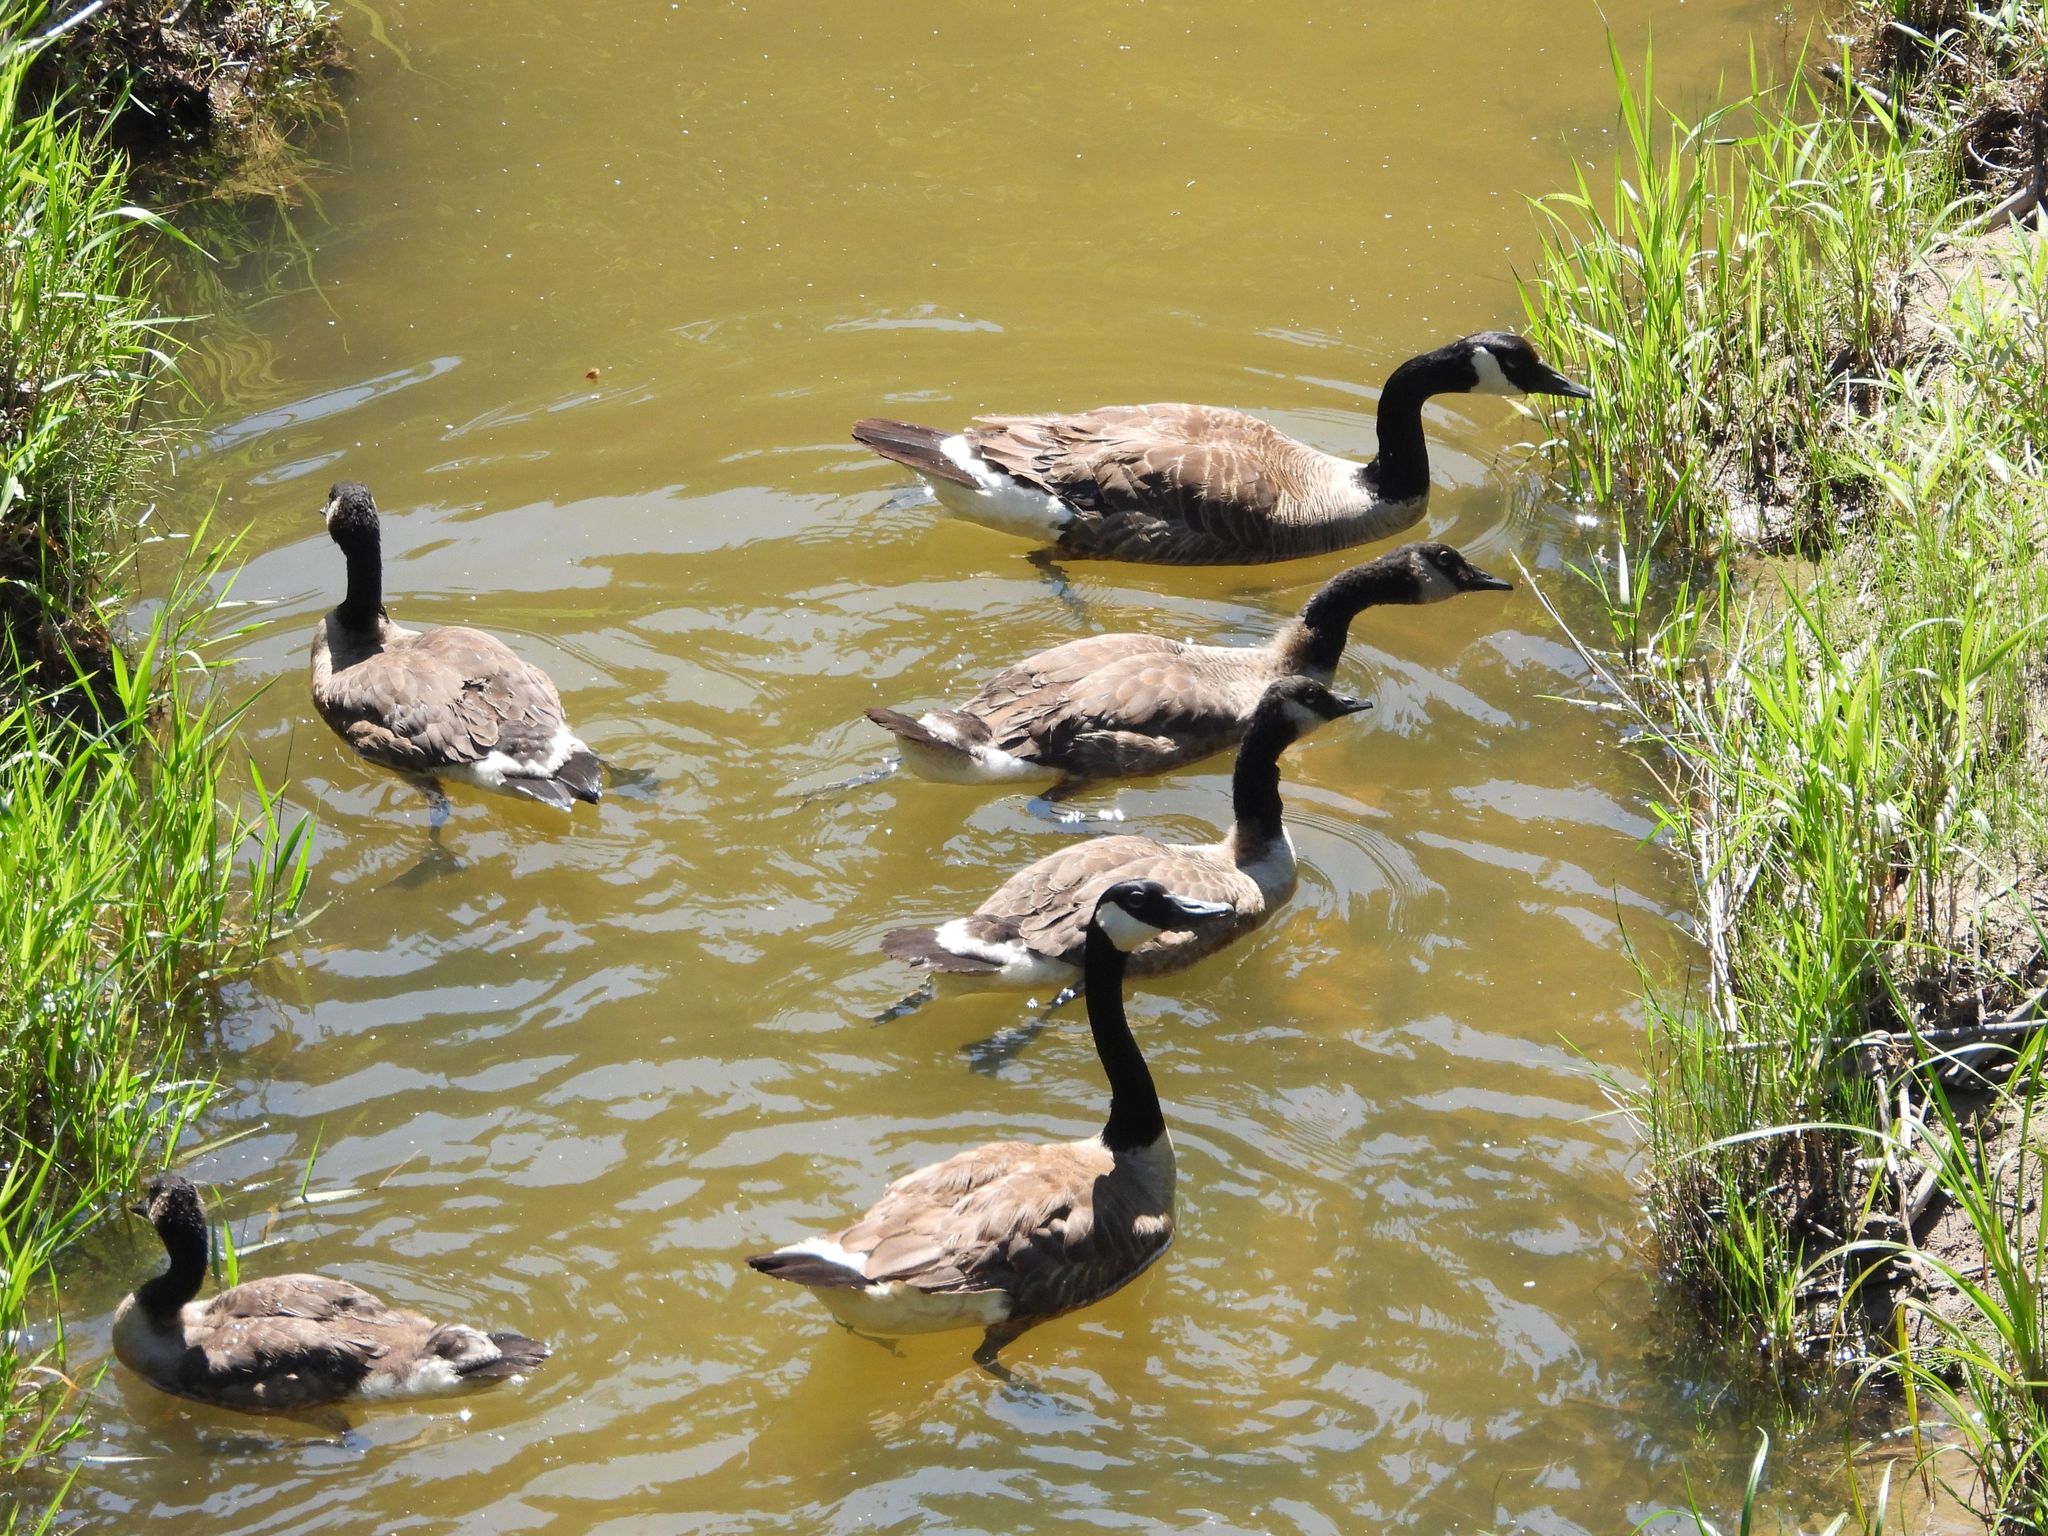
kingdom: Animalia
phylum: Chordata
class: Aves
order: Anseriformes
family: Anatidae
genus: Branta
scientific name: Branta canadensis
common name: Canada goose
